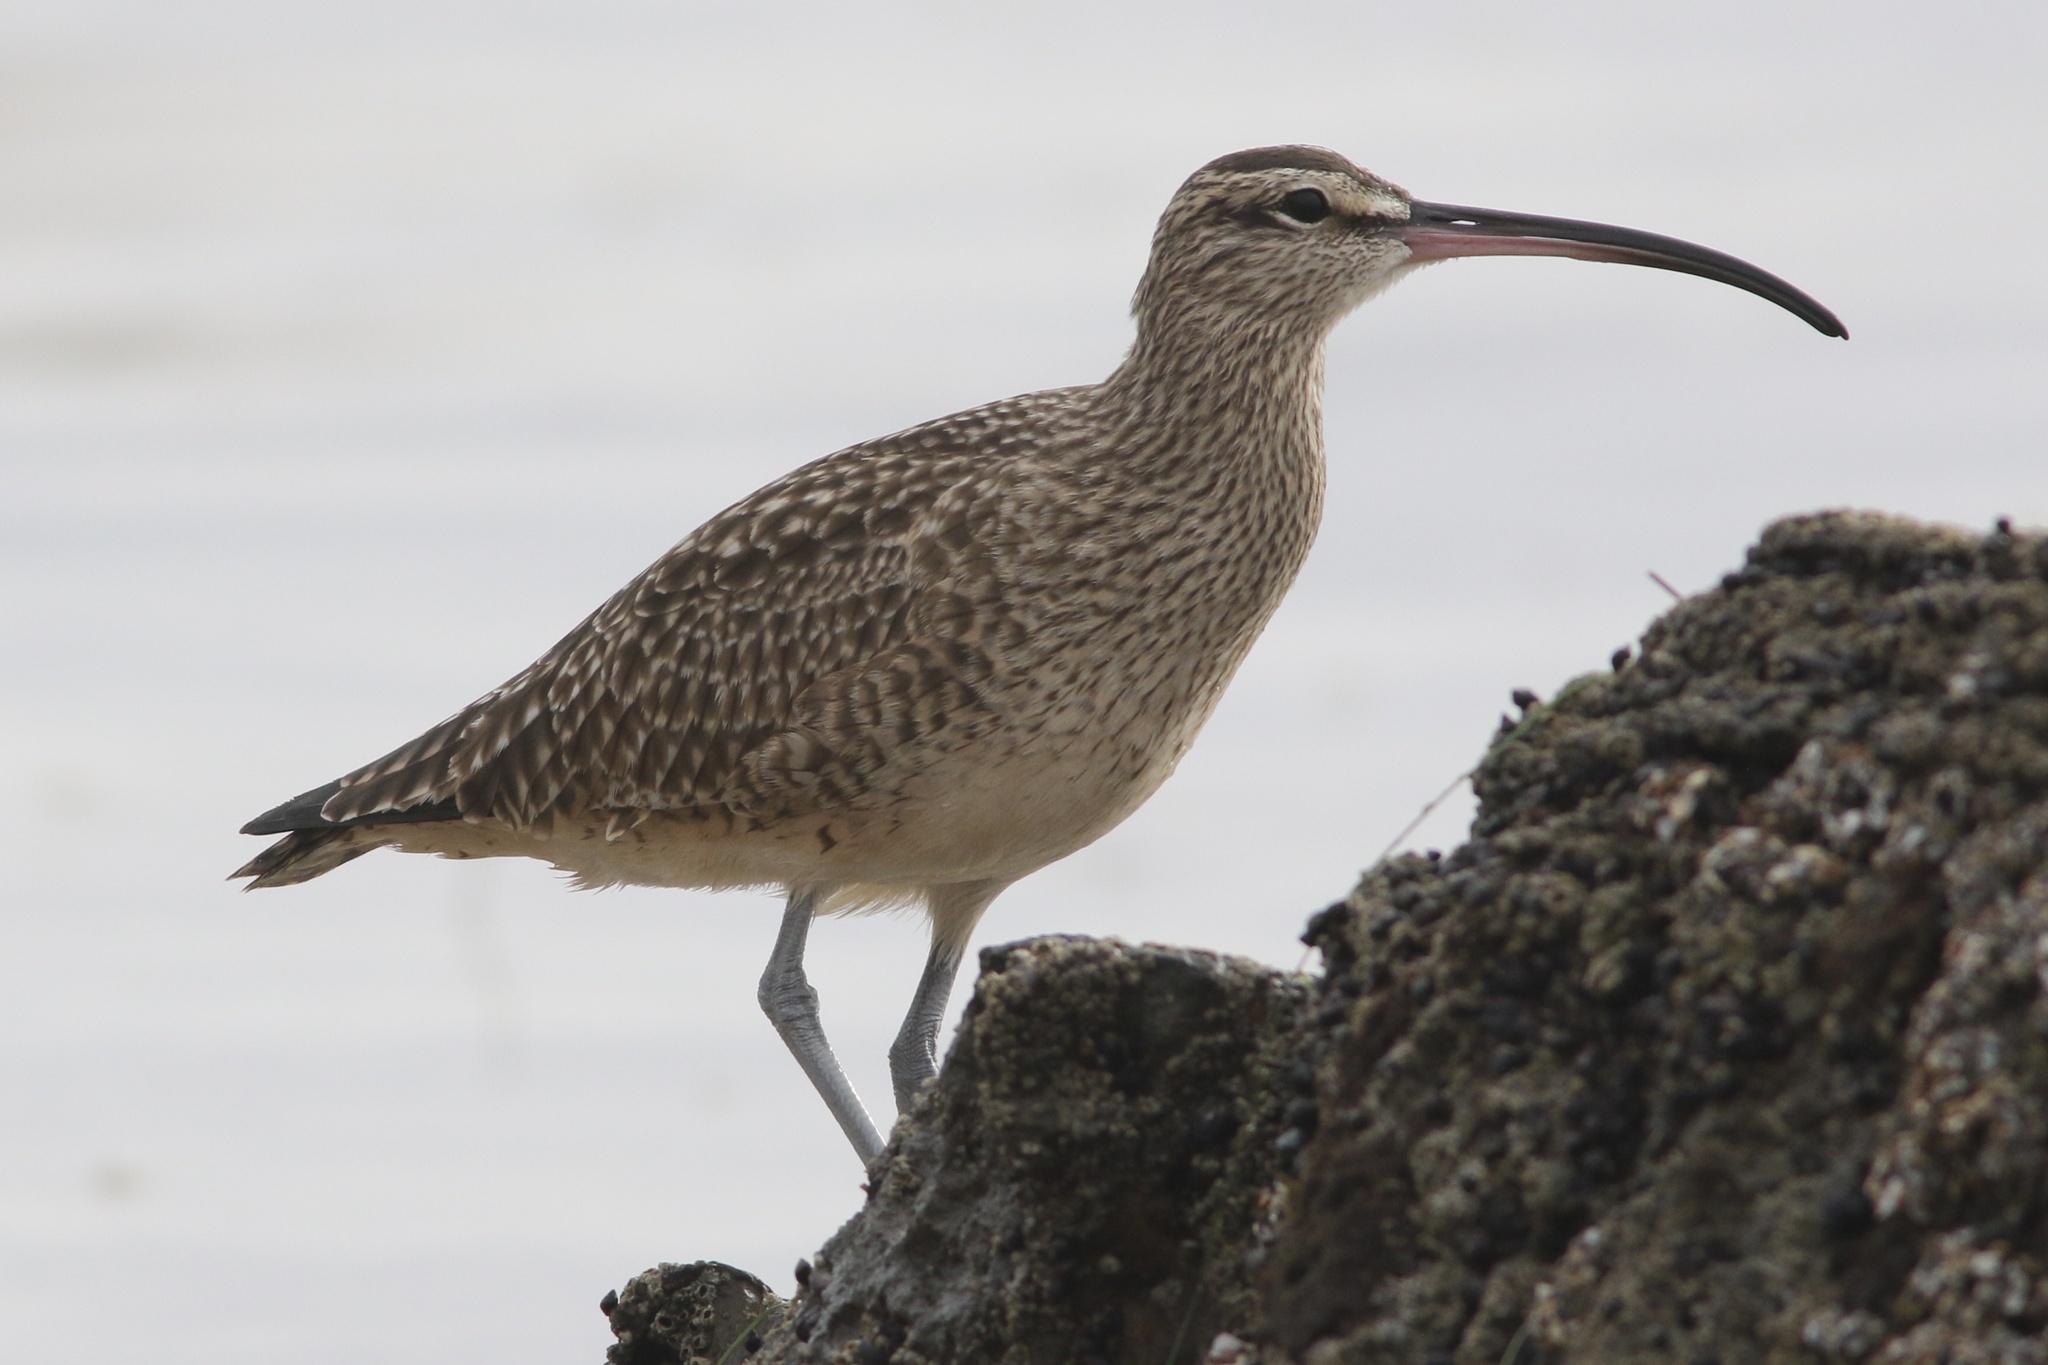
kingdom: Animalia
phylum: Chordata
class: Aves
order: Charadriiformes
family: Scolopacidae
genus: Numenius
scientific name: Numenius phaeopus
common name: Whimbrel
